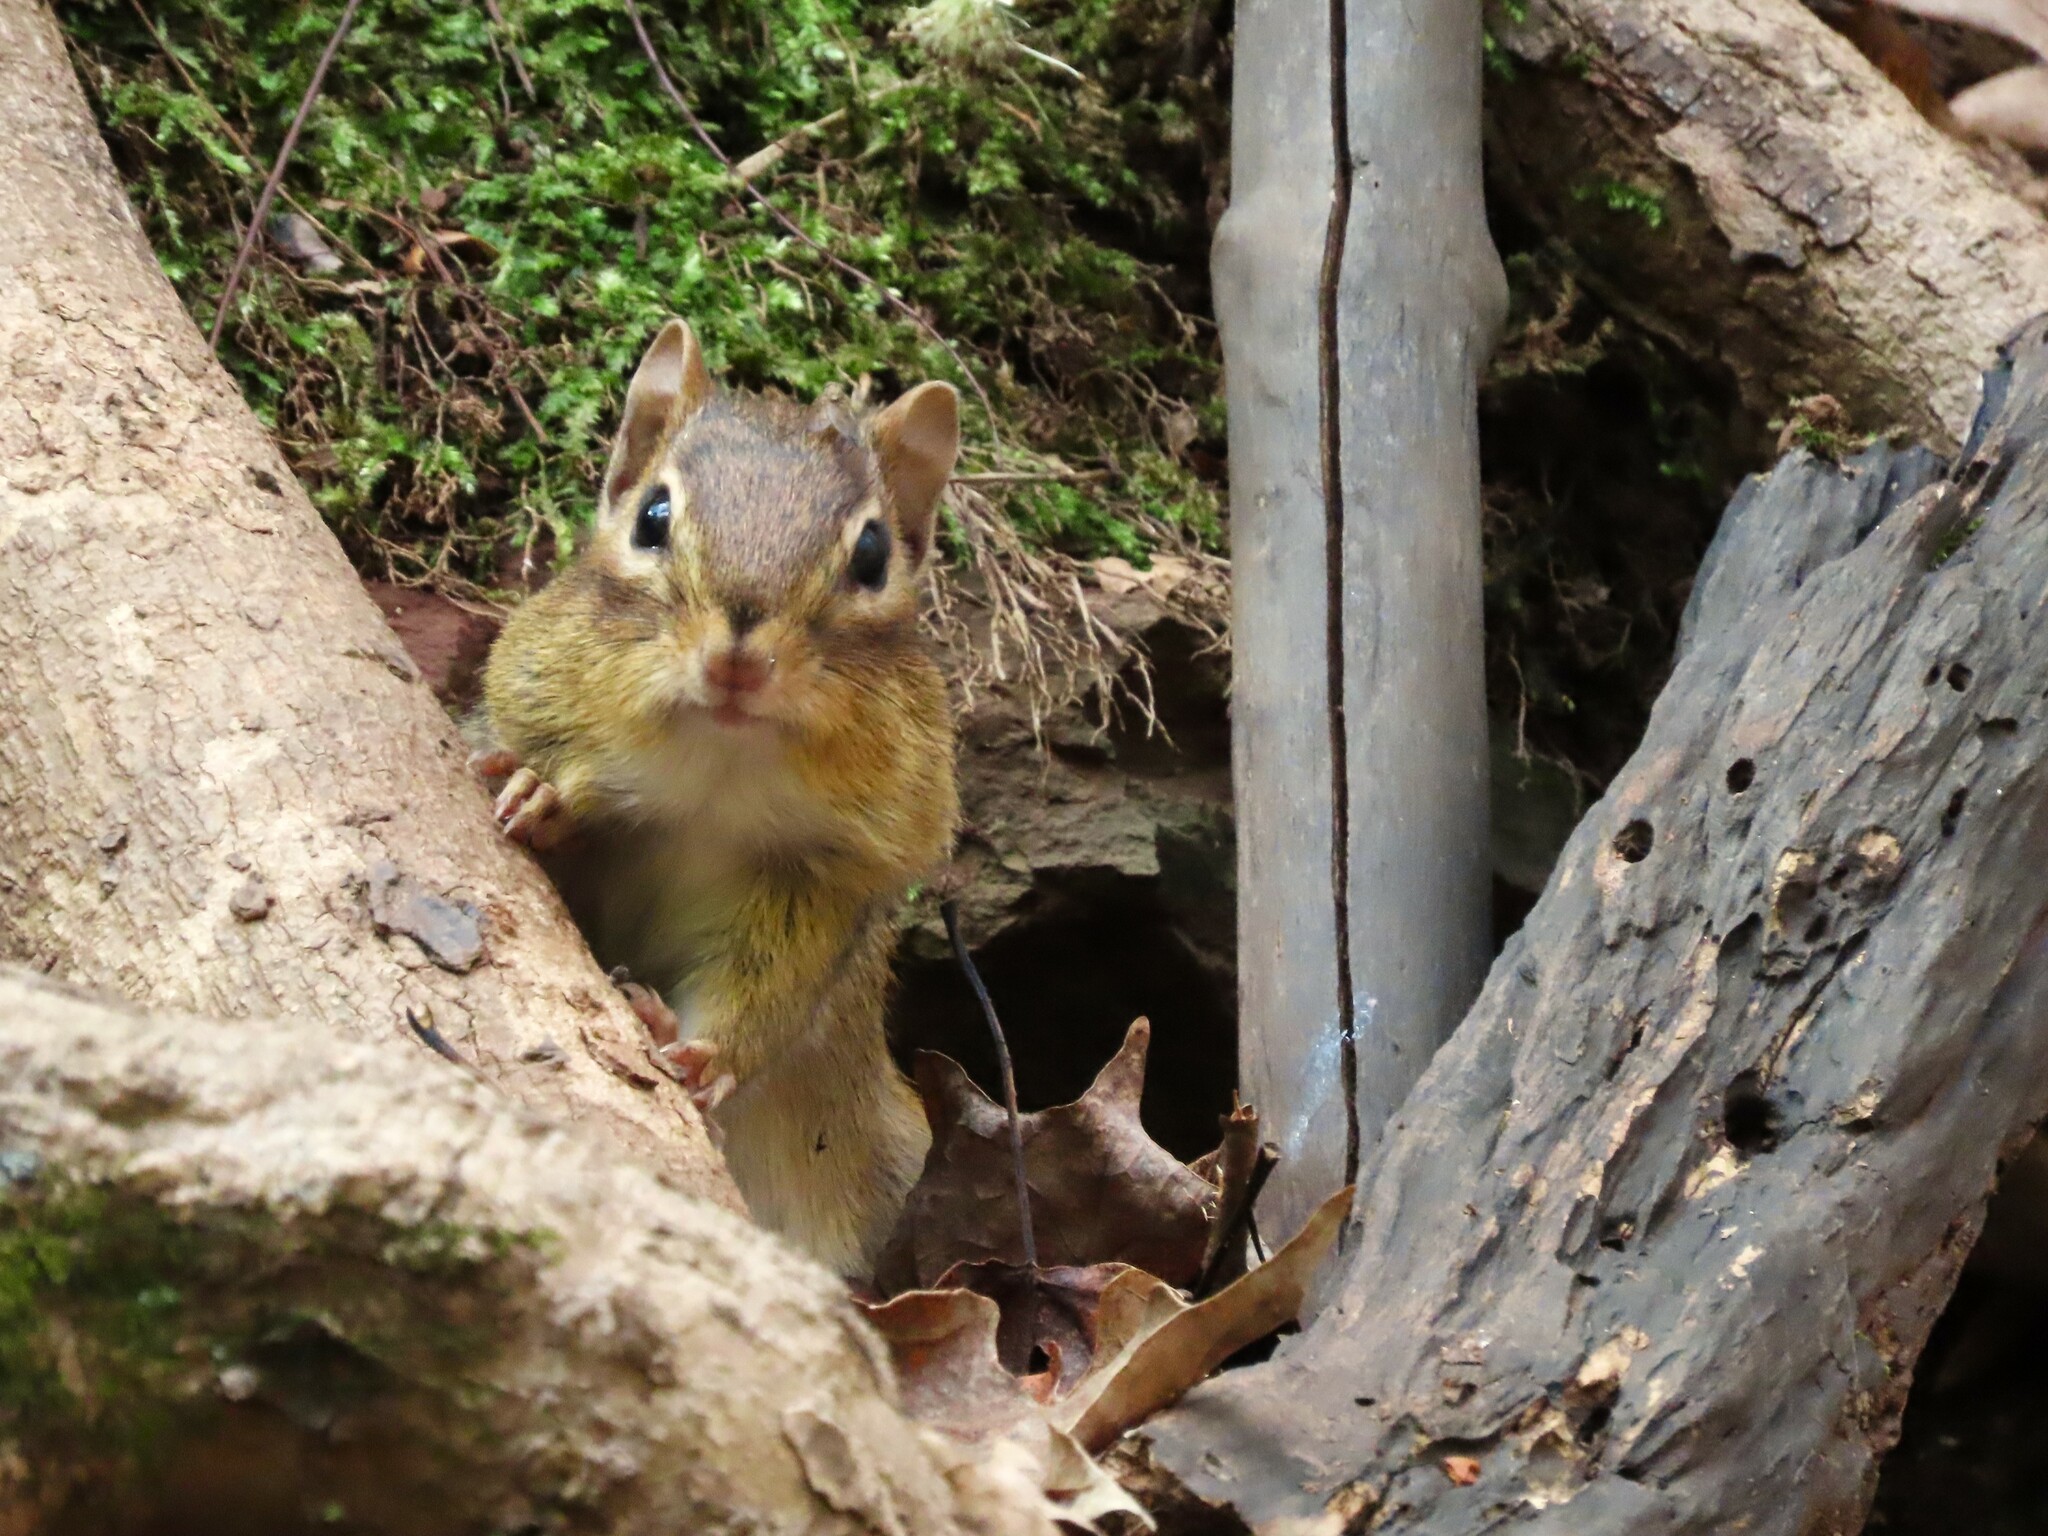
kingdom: Animalia
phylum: Chordata
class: Mammalia
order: Rodentia
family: Sciuridae
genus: Tamias
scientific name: Tamias striatus
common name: Eastern chipmunk
